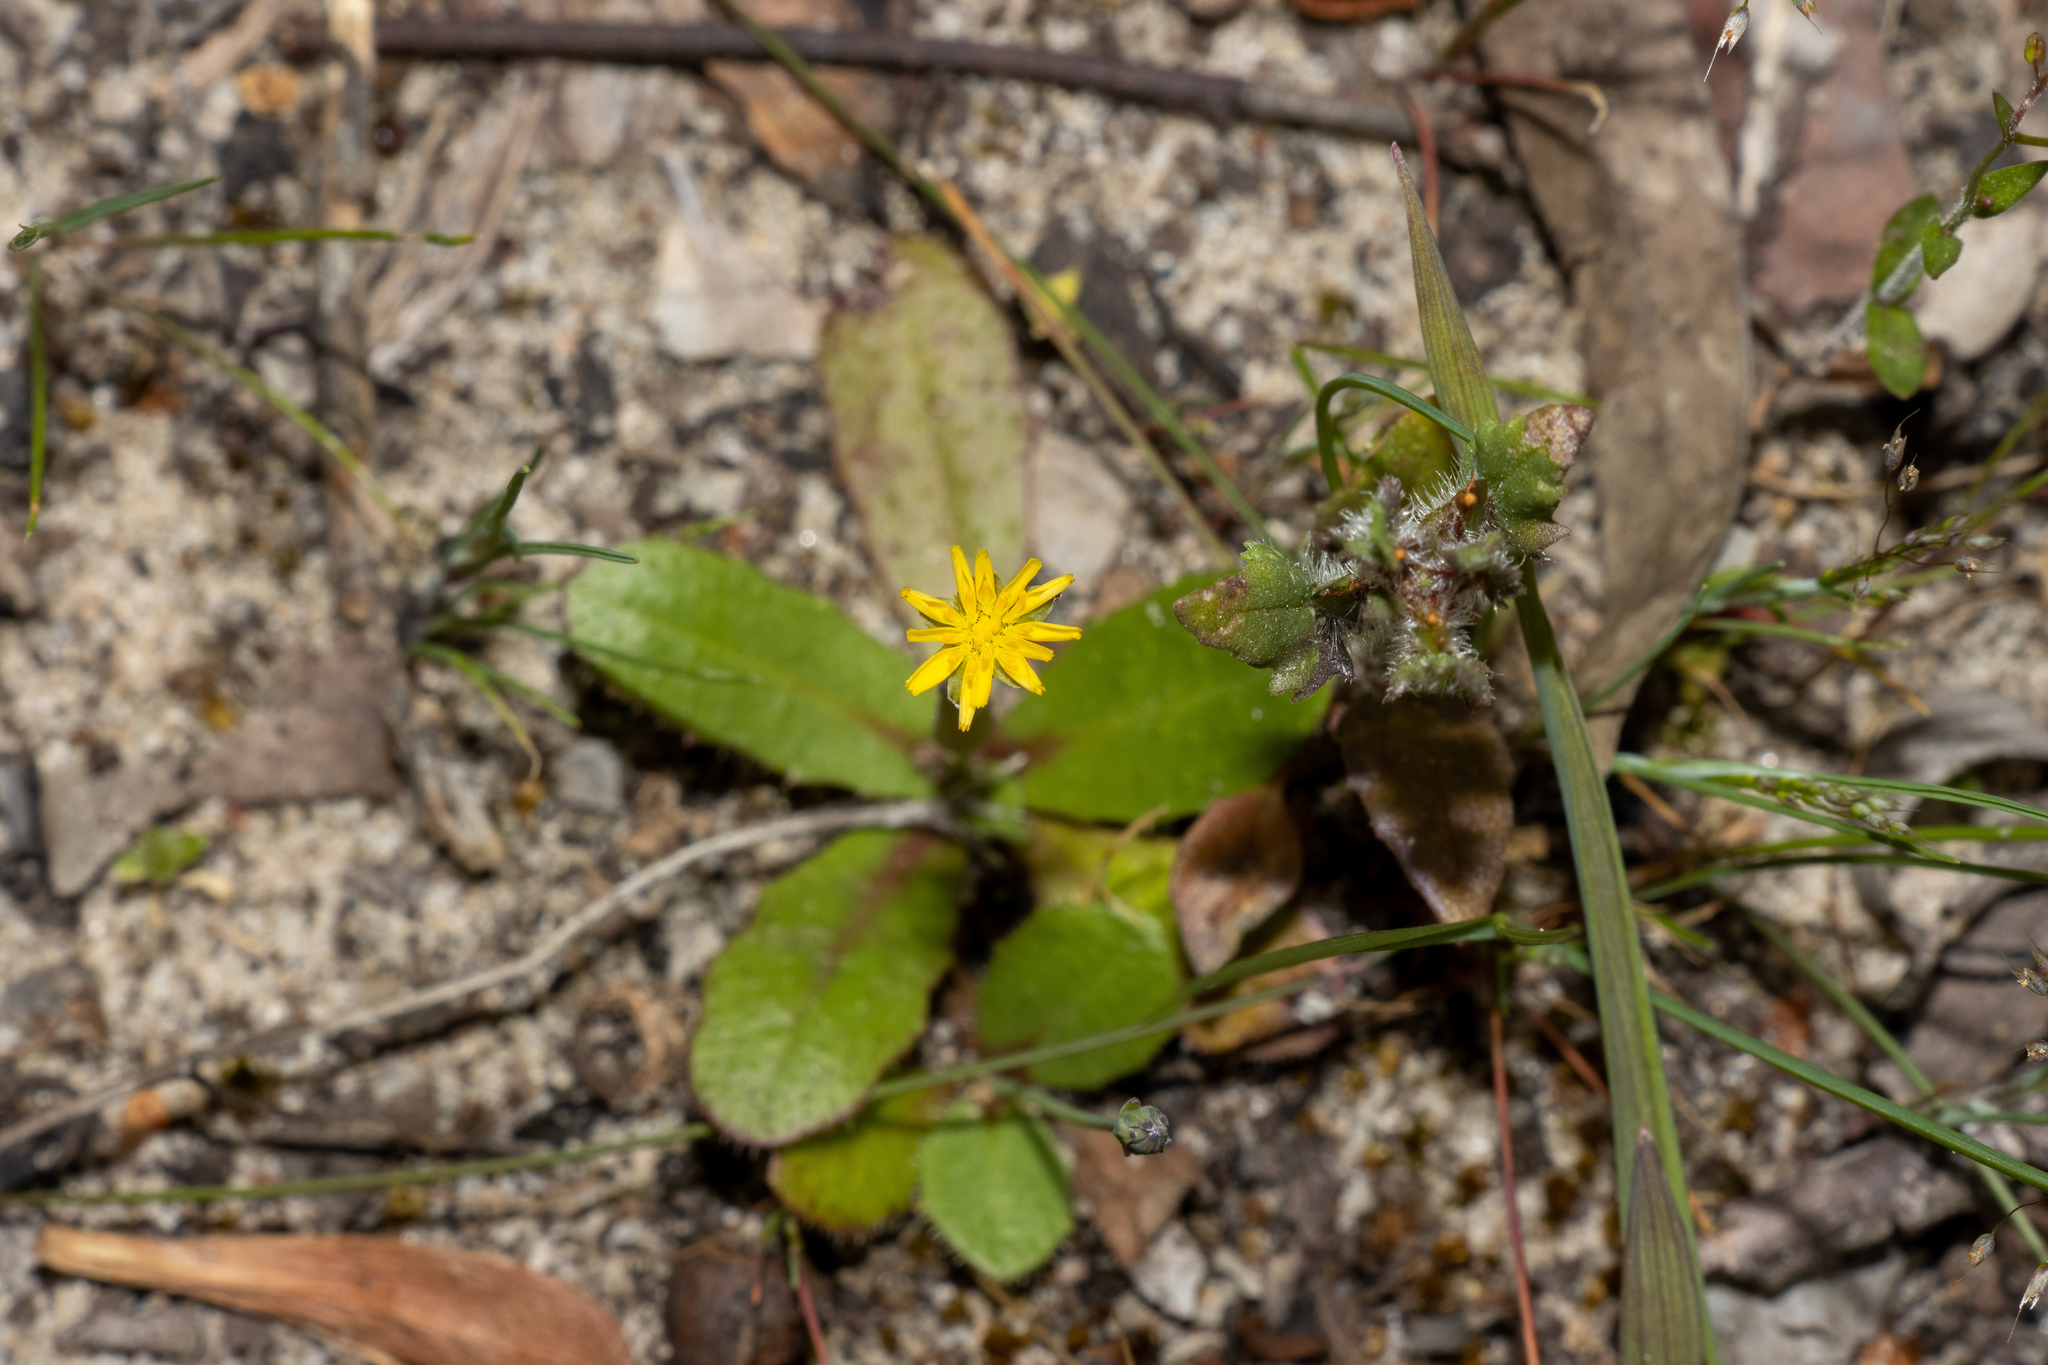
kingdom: Plantae
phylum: Tracheophyta
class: Magnoliopsida
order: Asterales
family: Asteraceae
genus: Hypochaeris
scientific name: Hypochaeris glabra
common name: Smooth catsear
